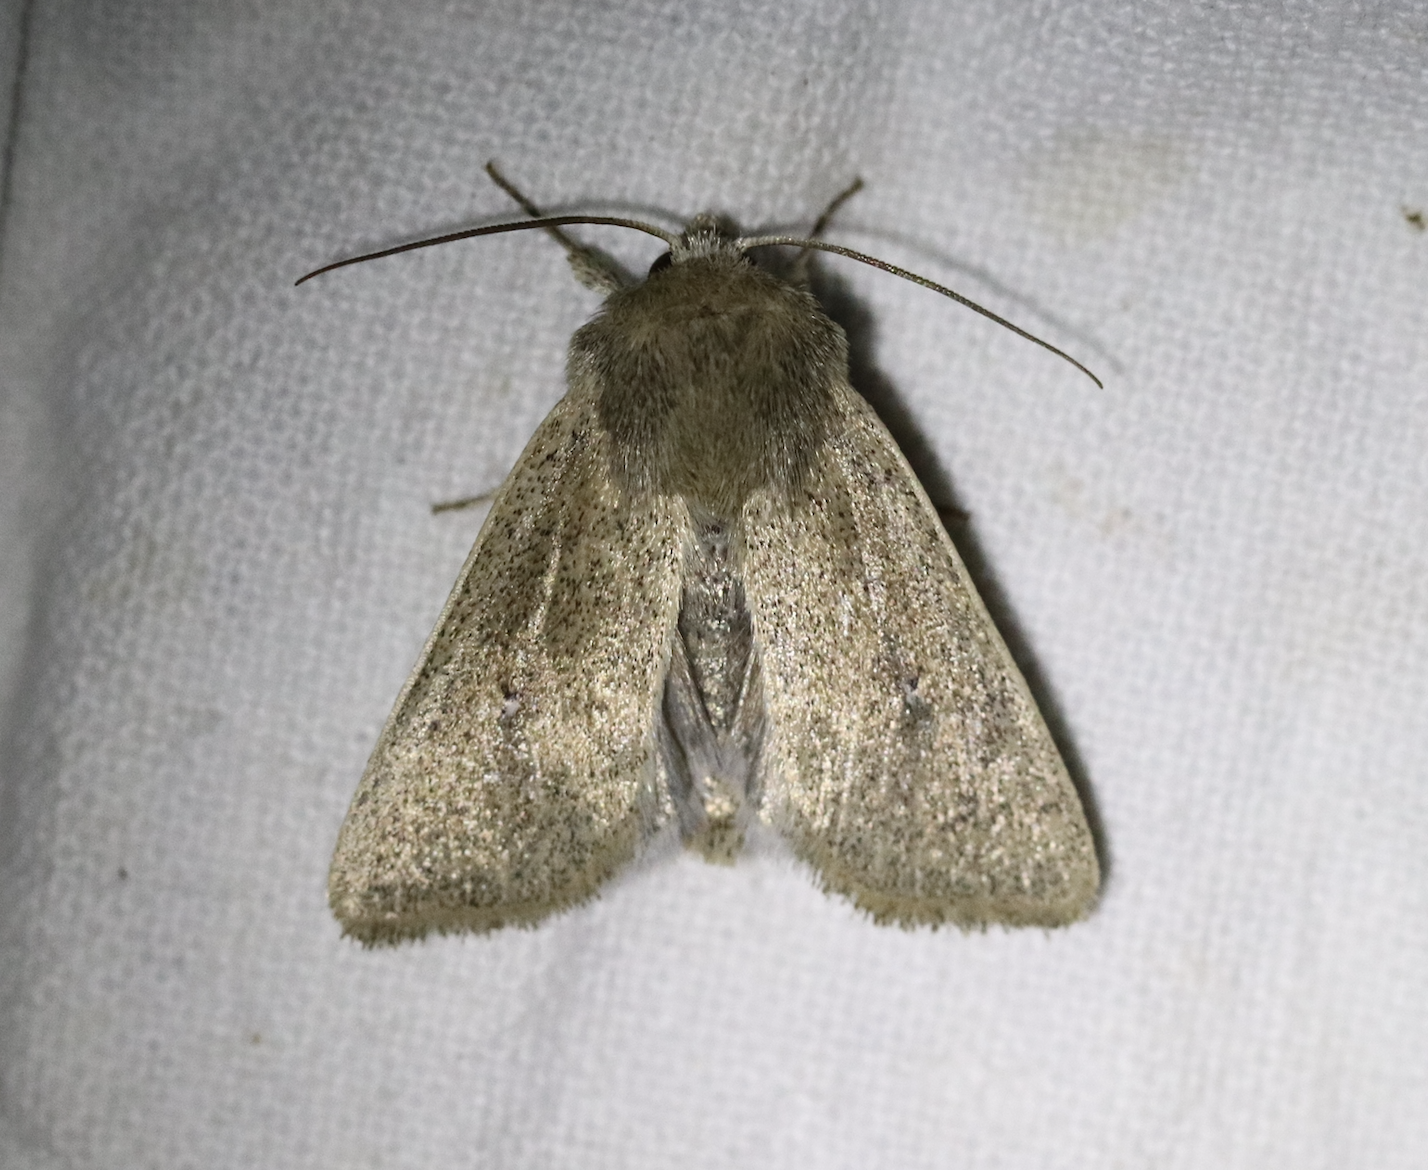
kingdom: Animalia
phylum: Arthropoda
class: Insecta
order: Lepidoptera
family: Noctuidae
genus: Mythimna
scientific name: Mythimna sicula
